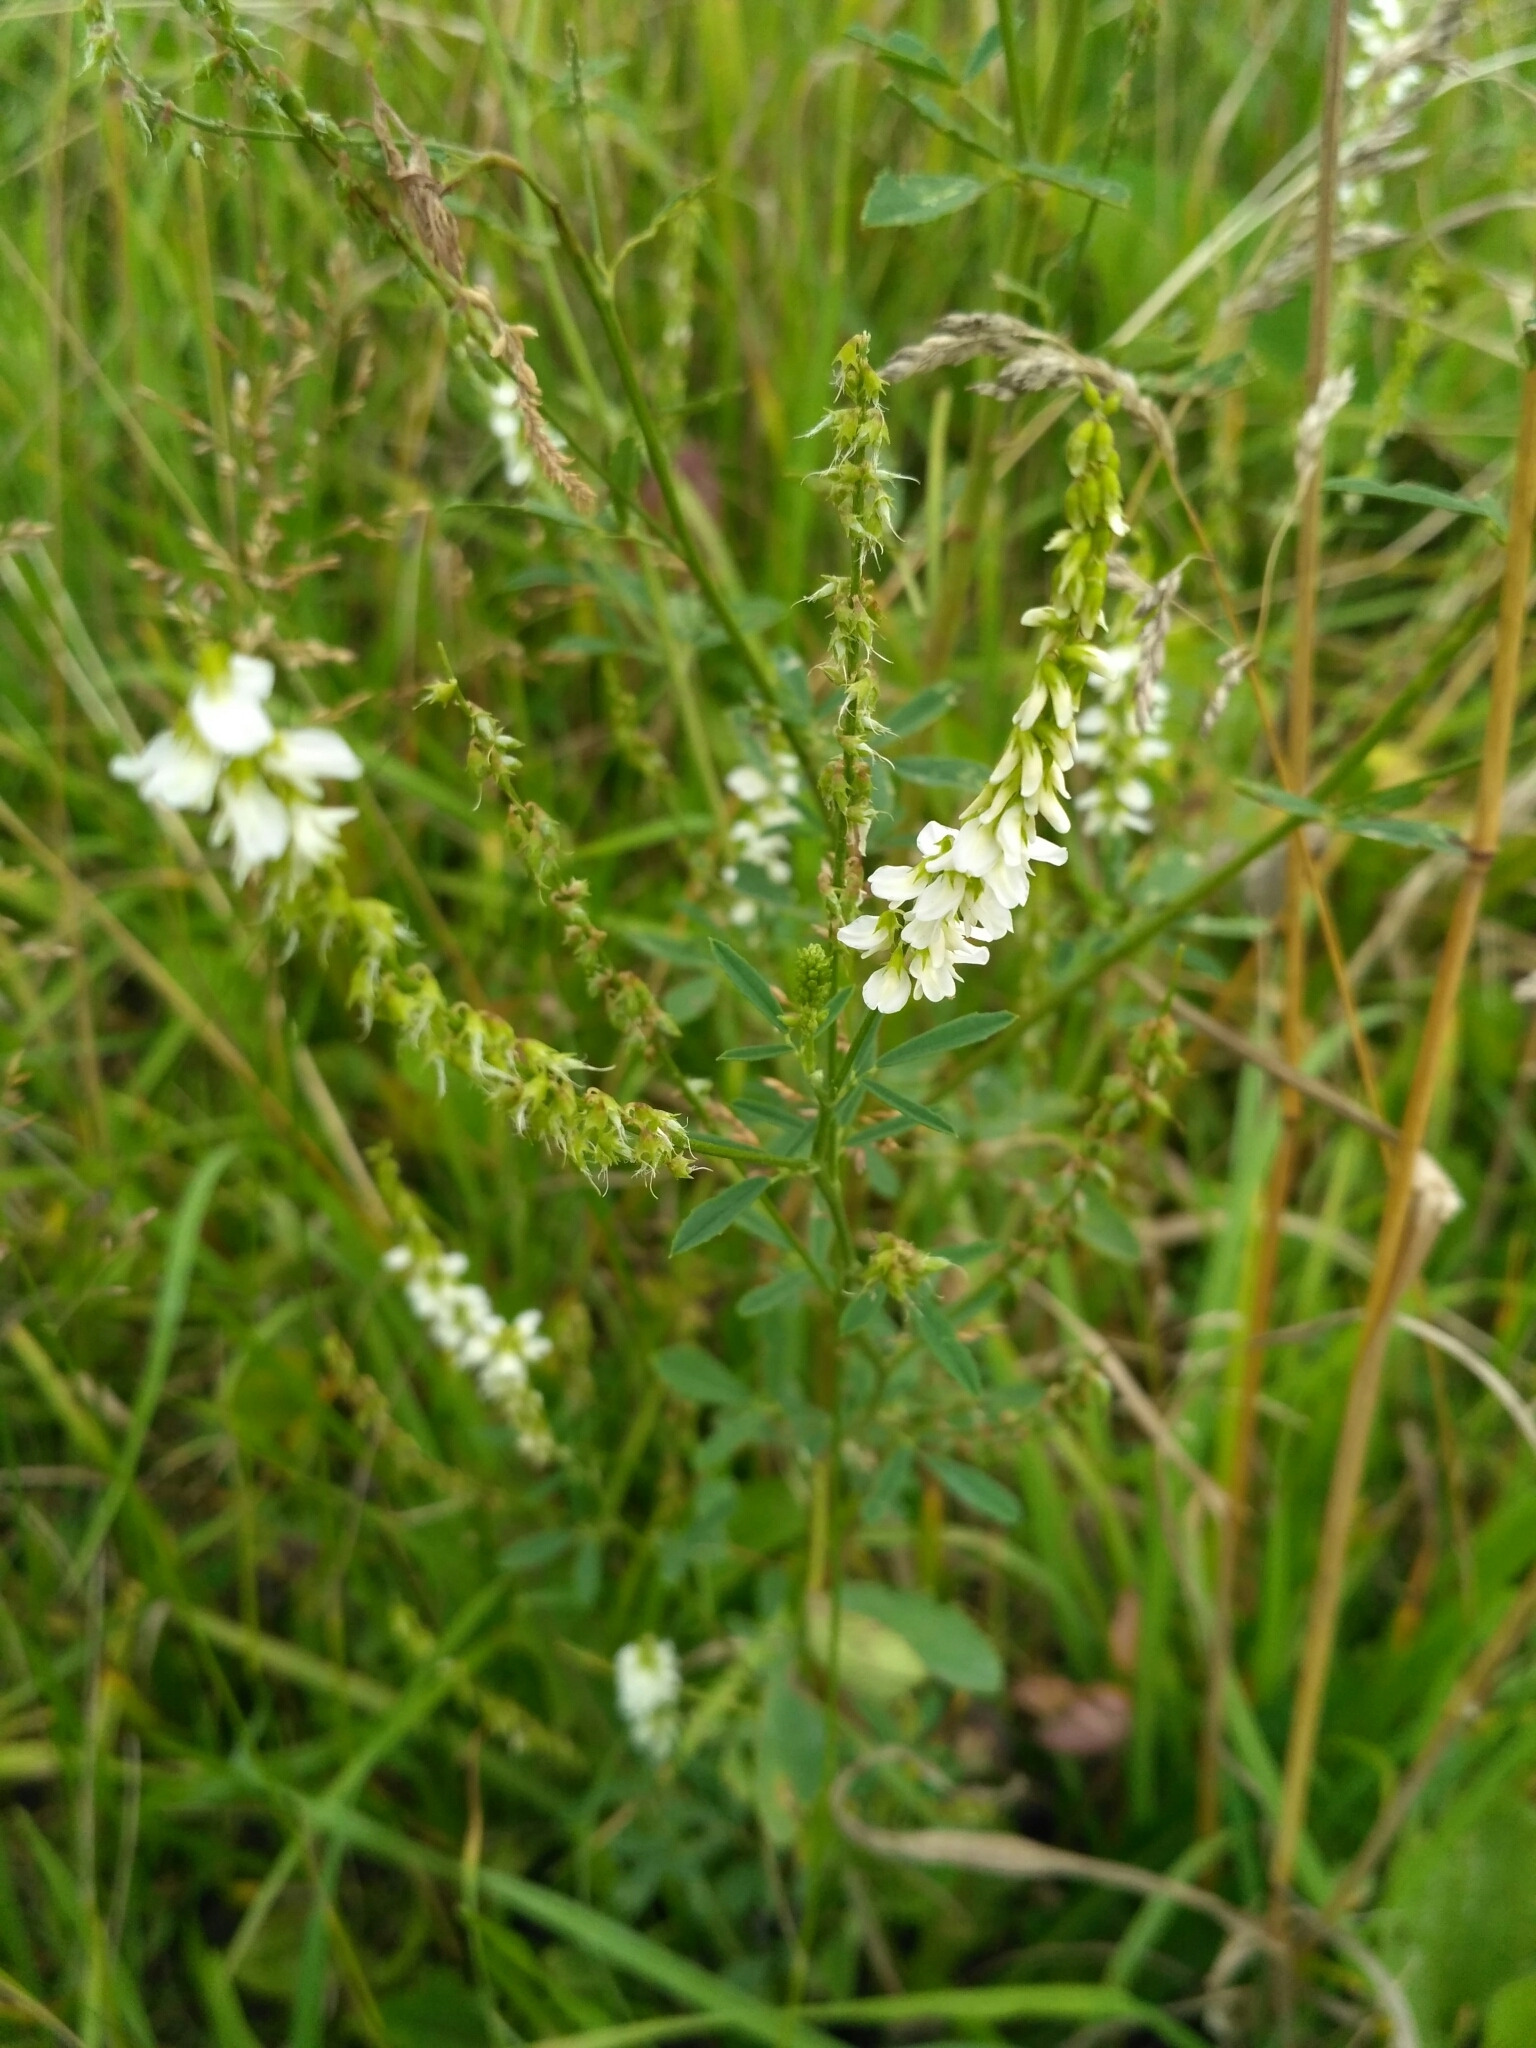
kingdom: Plantae
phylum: Tracheophyta
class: Magnoliopsida
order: Fabales
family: Fabaceae
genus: Melilotus
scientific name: Melilotus albus
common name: White melilot
